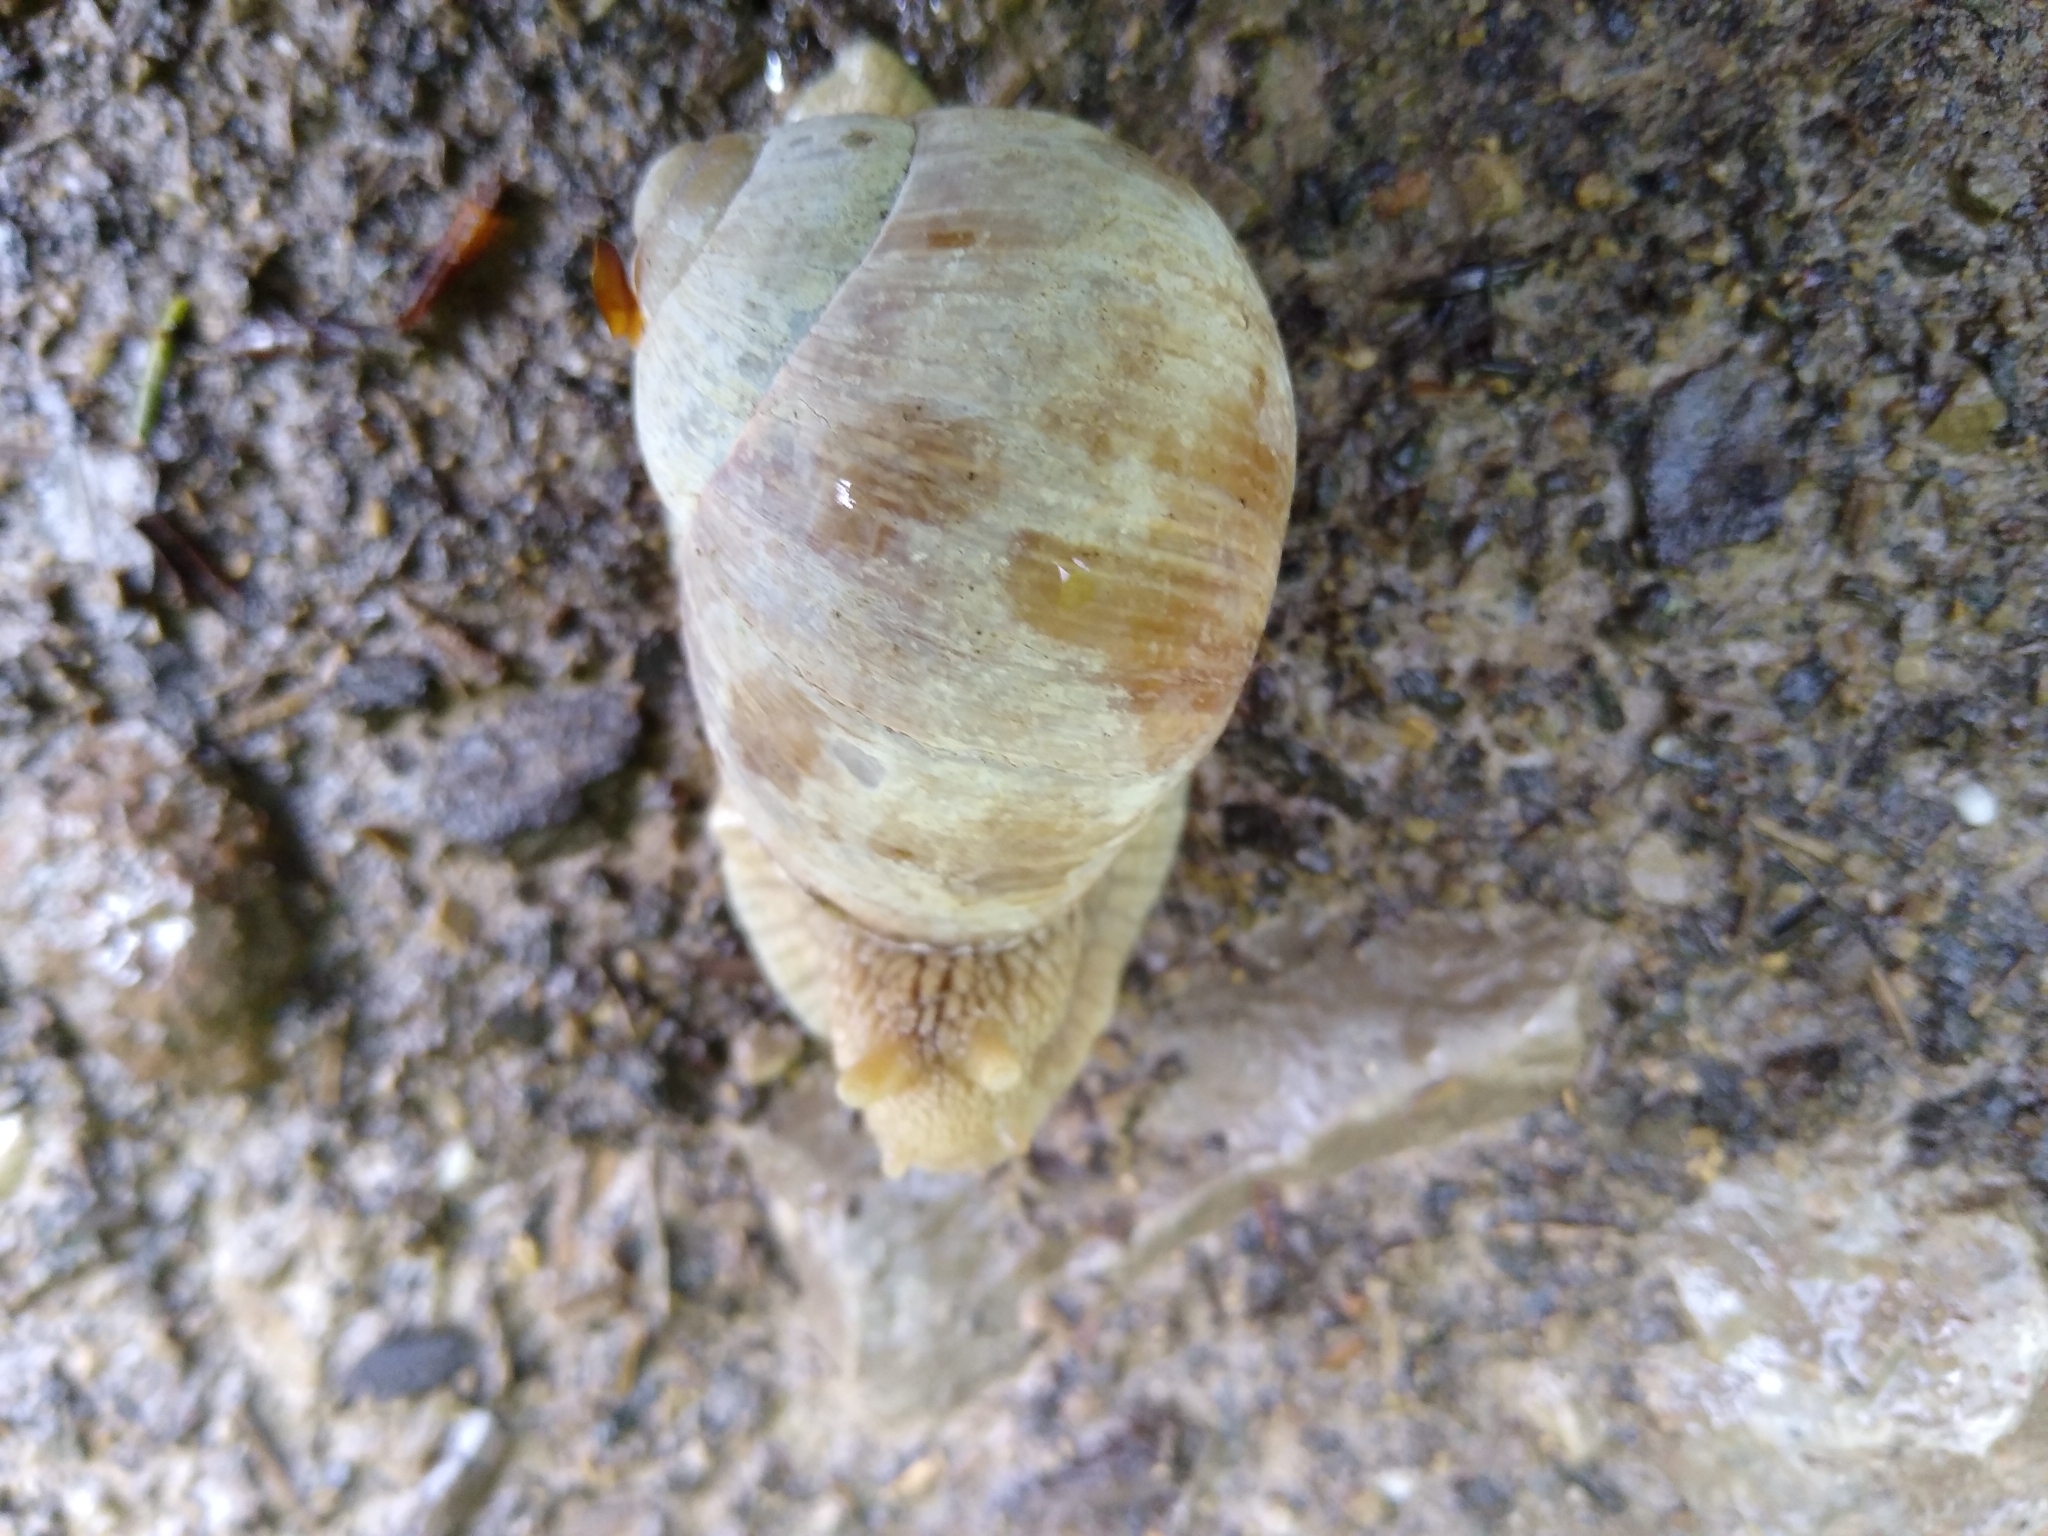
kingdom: Animalia
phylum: Mollusca
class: Gastropoda
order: Stylommatophora
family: Helicidae
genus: Helix
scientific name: Helix pomatia
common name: Roman snail
